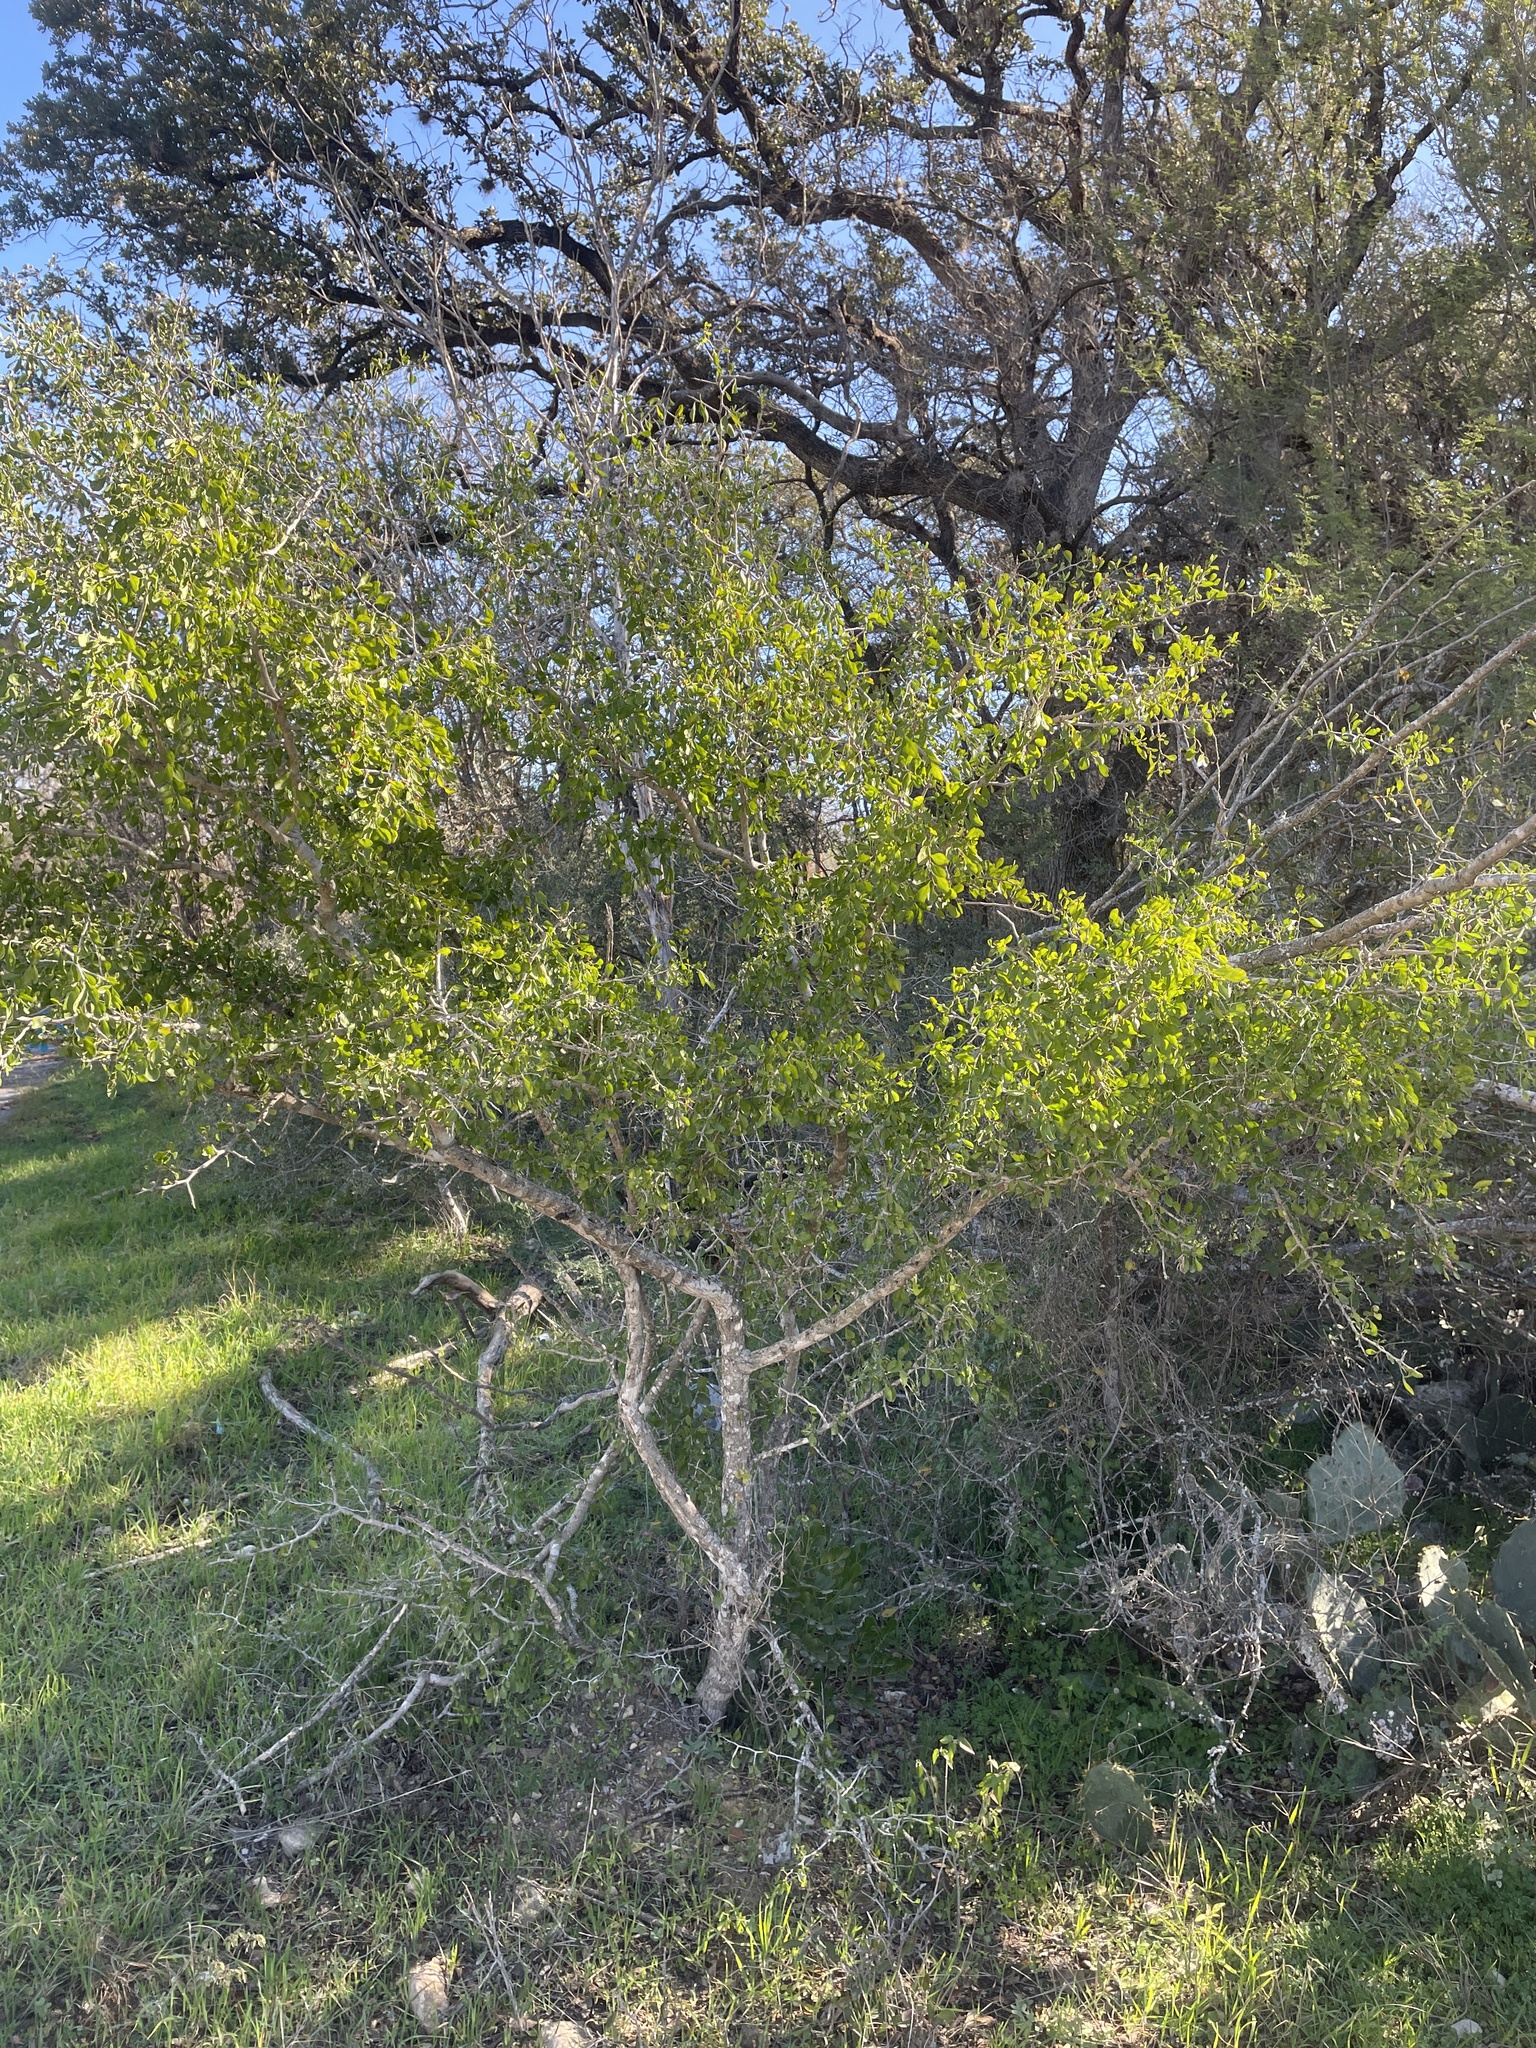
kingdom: Plantae
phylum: Tracheophyta
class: Magnoliopsida
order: Rosales
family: Rhamnaceae
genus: Condalia
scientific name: Condalia hookeri
